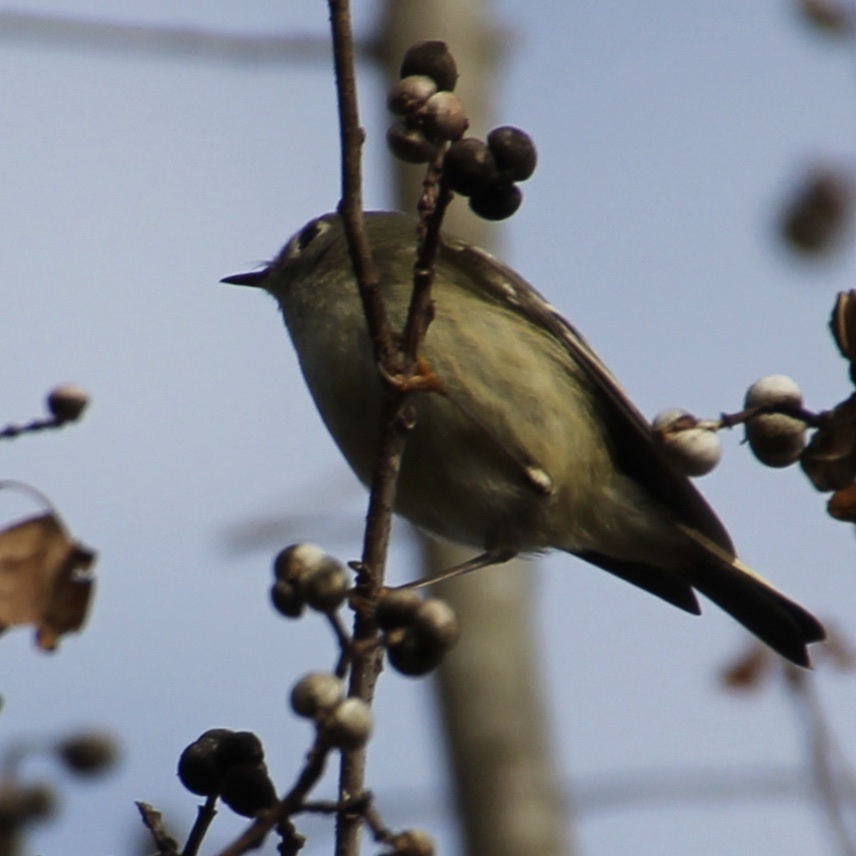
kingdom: Animalia
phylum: Chordata
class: Aves
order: Passeriformes
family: Regulidae
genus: Regulus
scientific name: Regulus calendula
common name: Ruby-crowned kinglet
